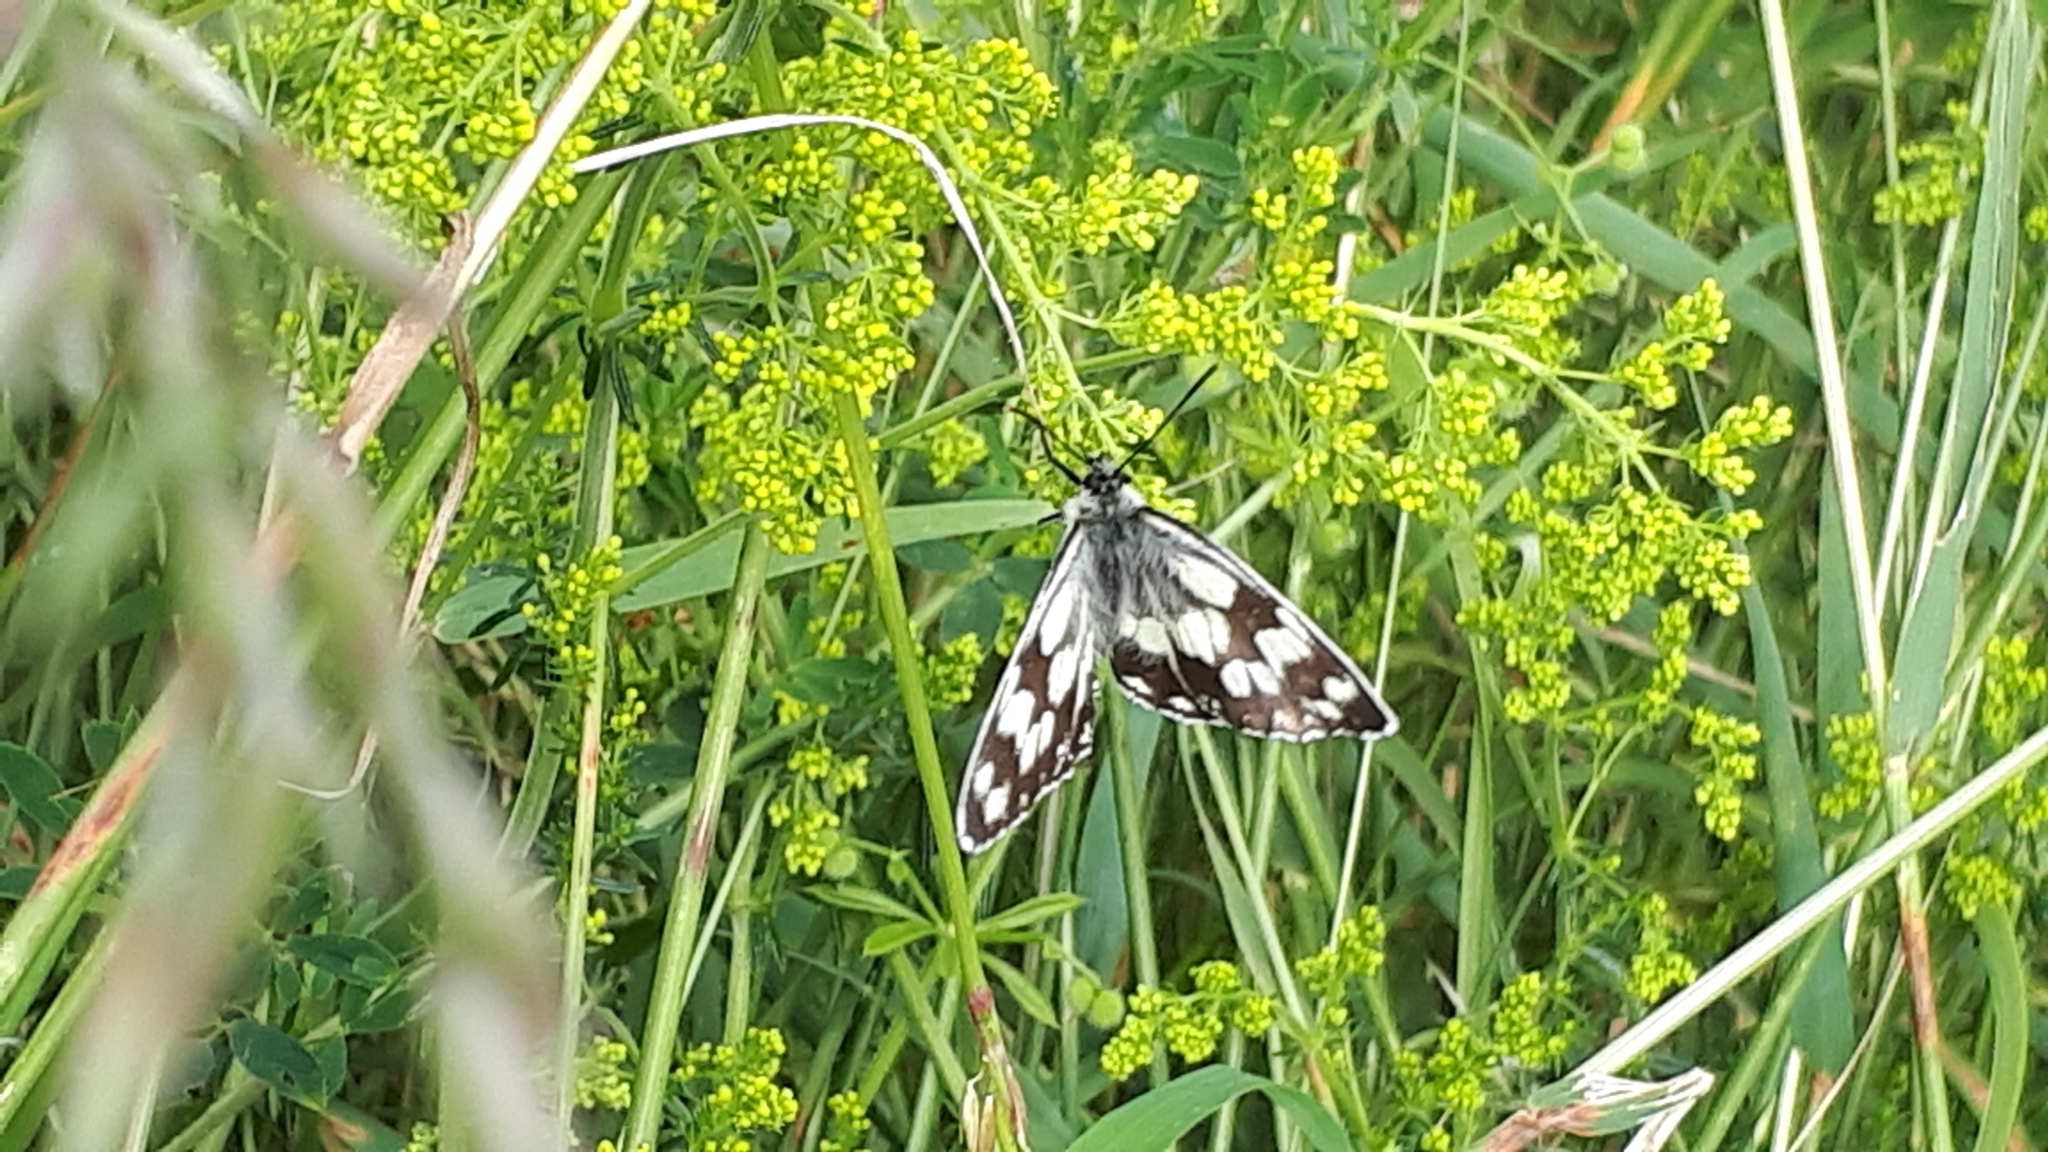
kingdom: Animalia
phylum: Arthropoda
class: Insecta
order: Lepidoptera
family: Nymphalidae
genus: Melanargia
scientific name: Melanargia galathea
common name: Marbled white
